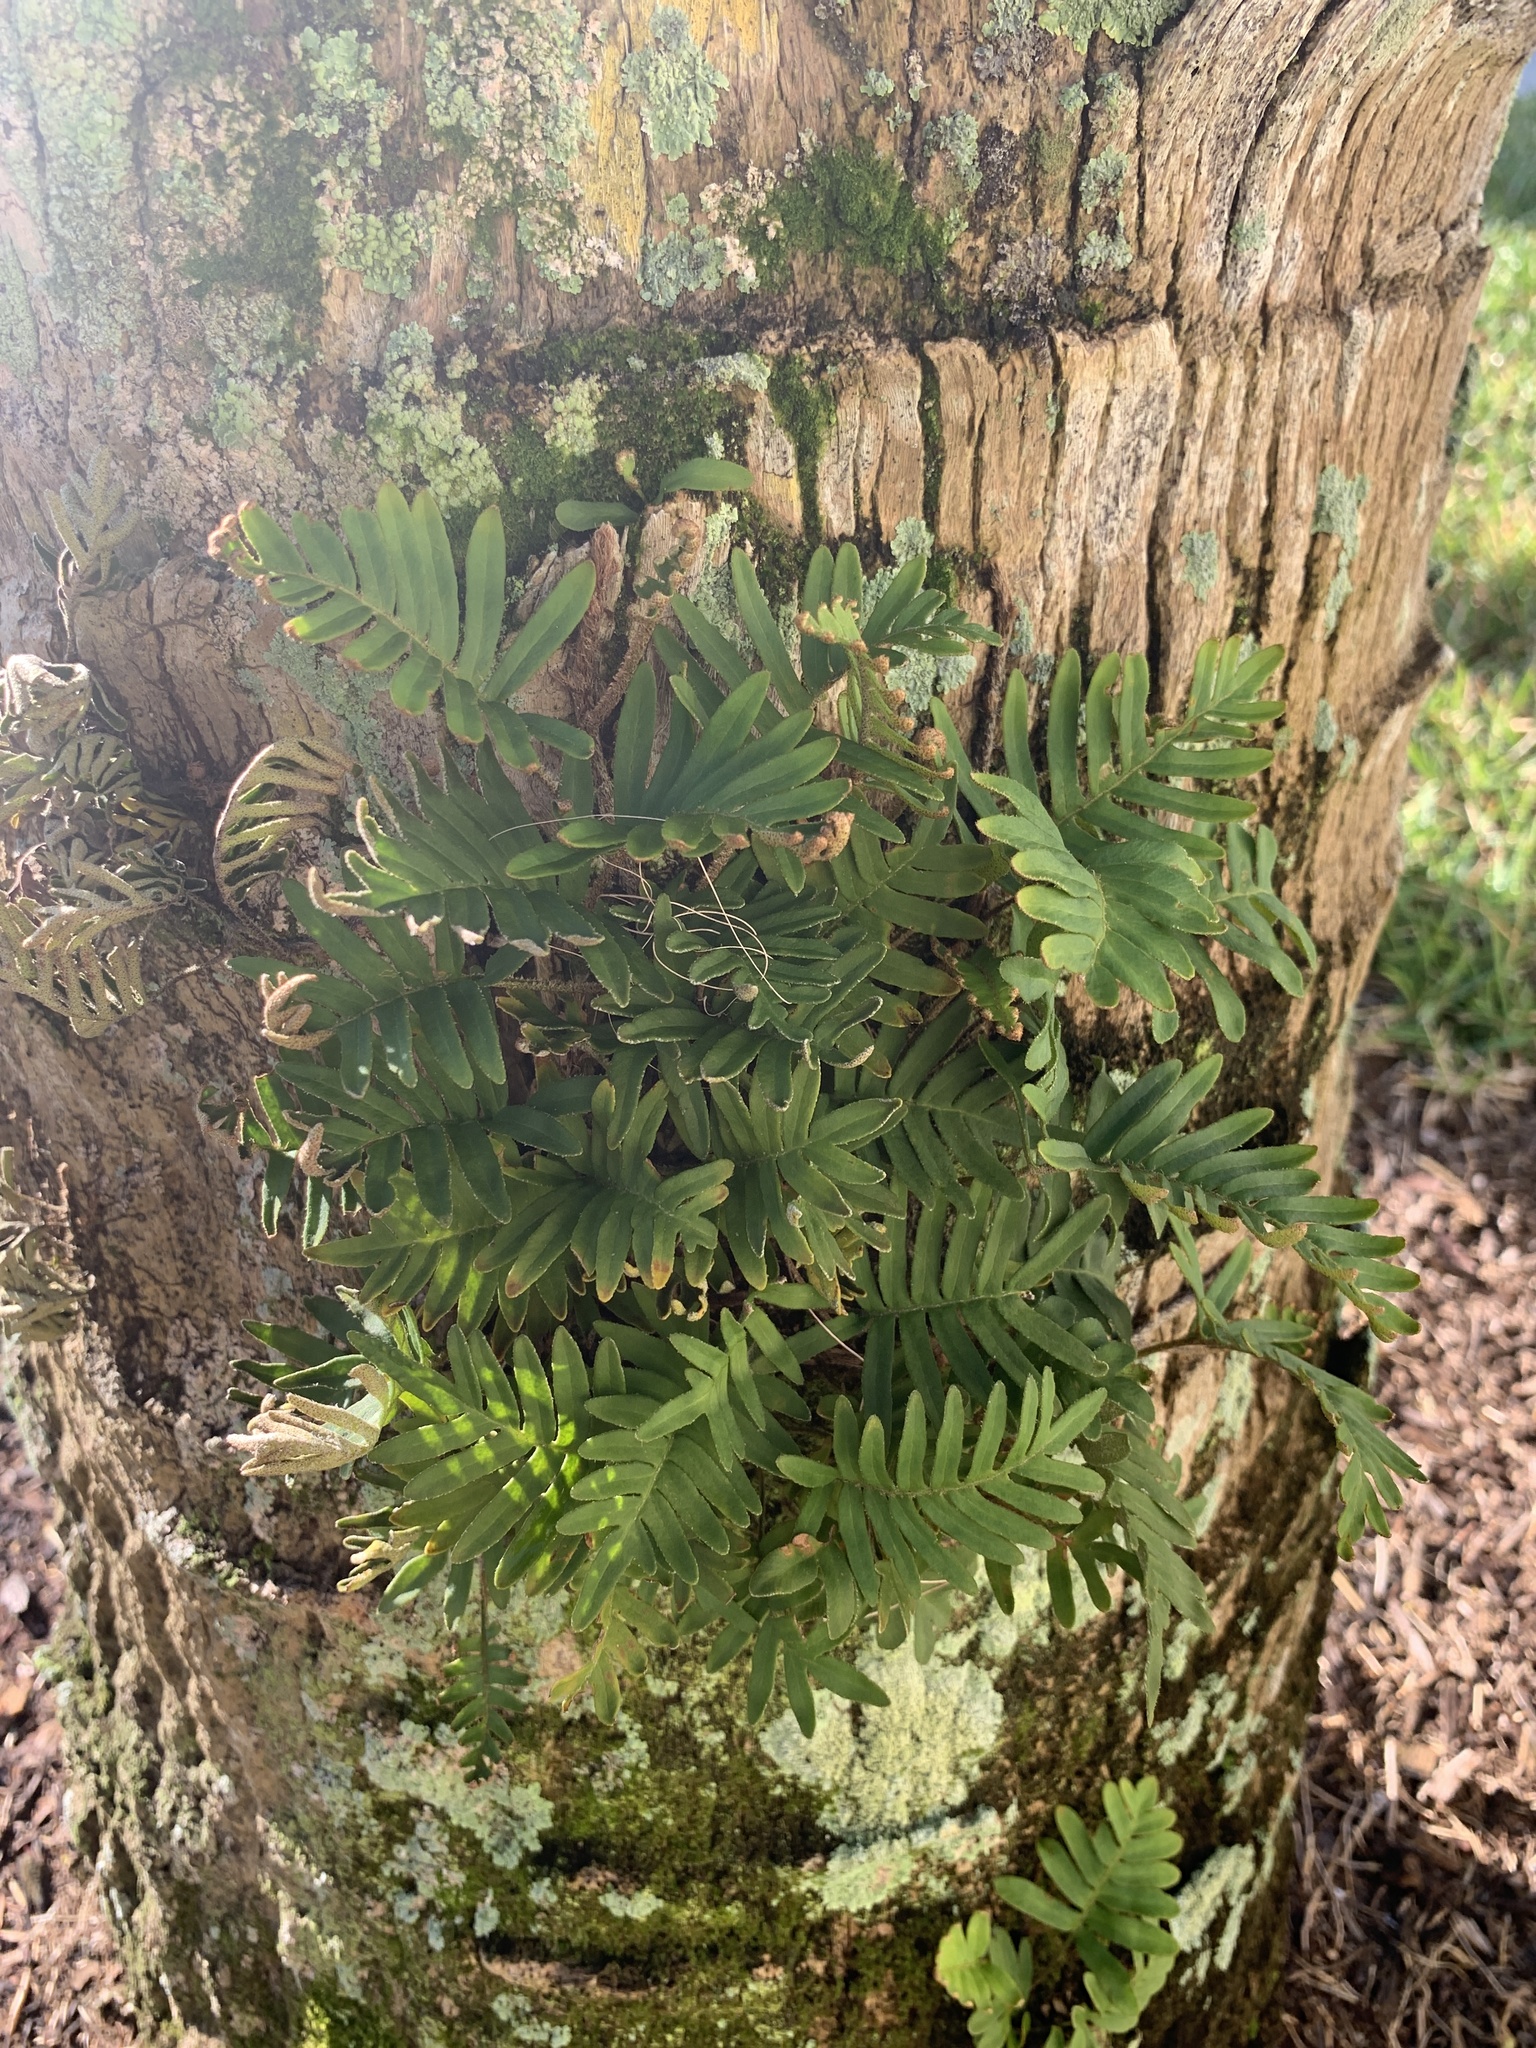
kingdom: Plantae
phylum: Tracheophyta
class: Polypodiopsida
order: Polypodiales
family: Polypodiaceae
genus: Pleopeltis
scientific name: Pleopeltis michauxiana
